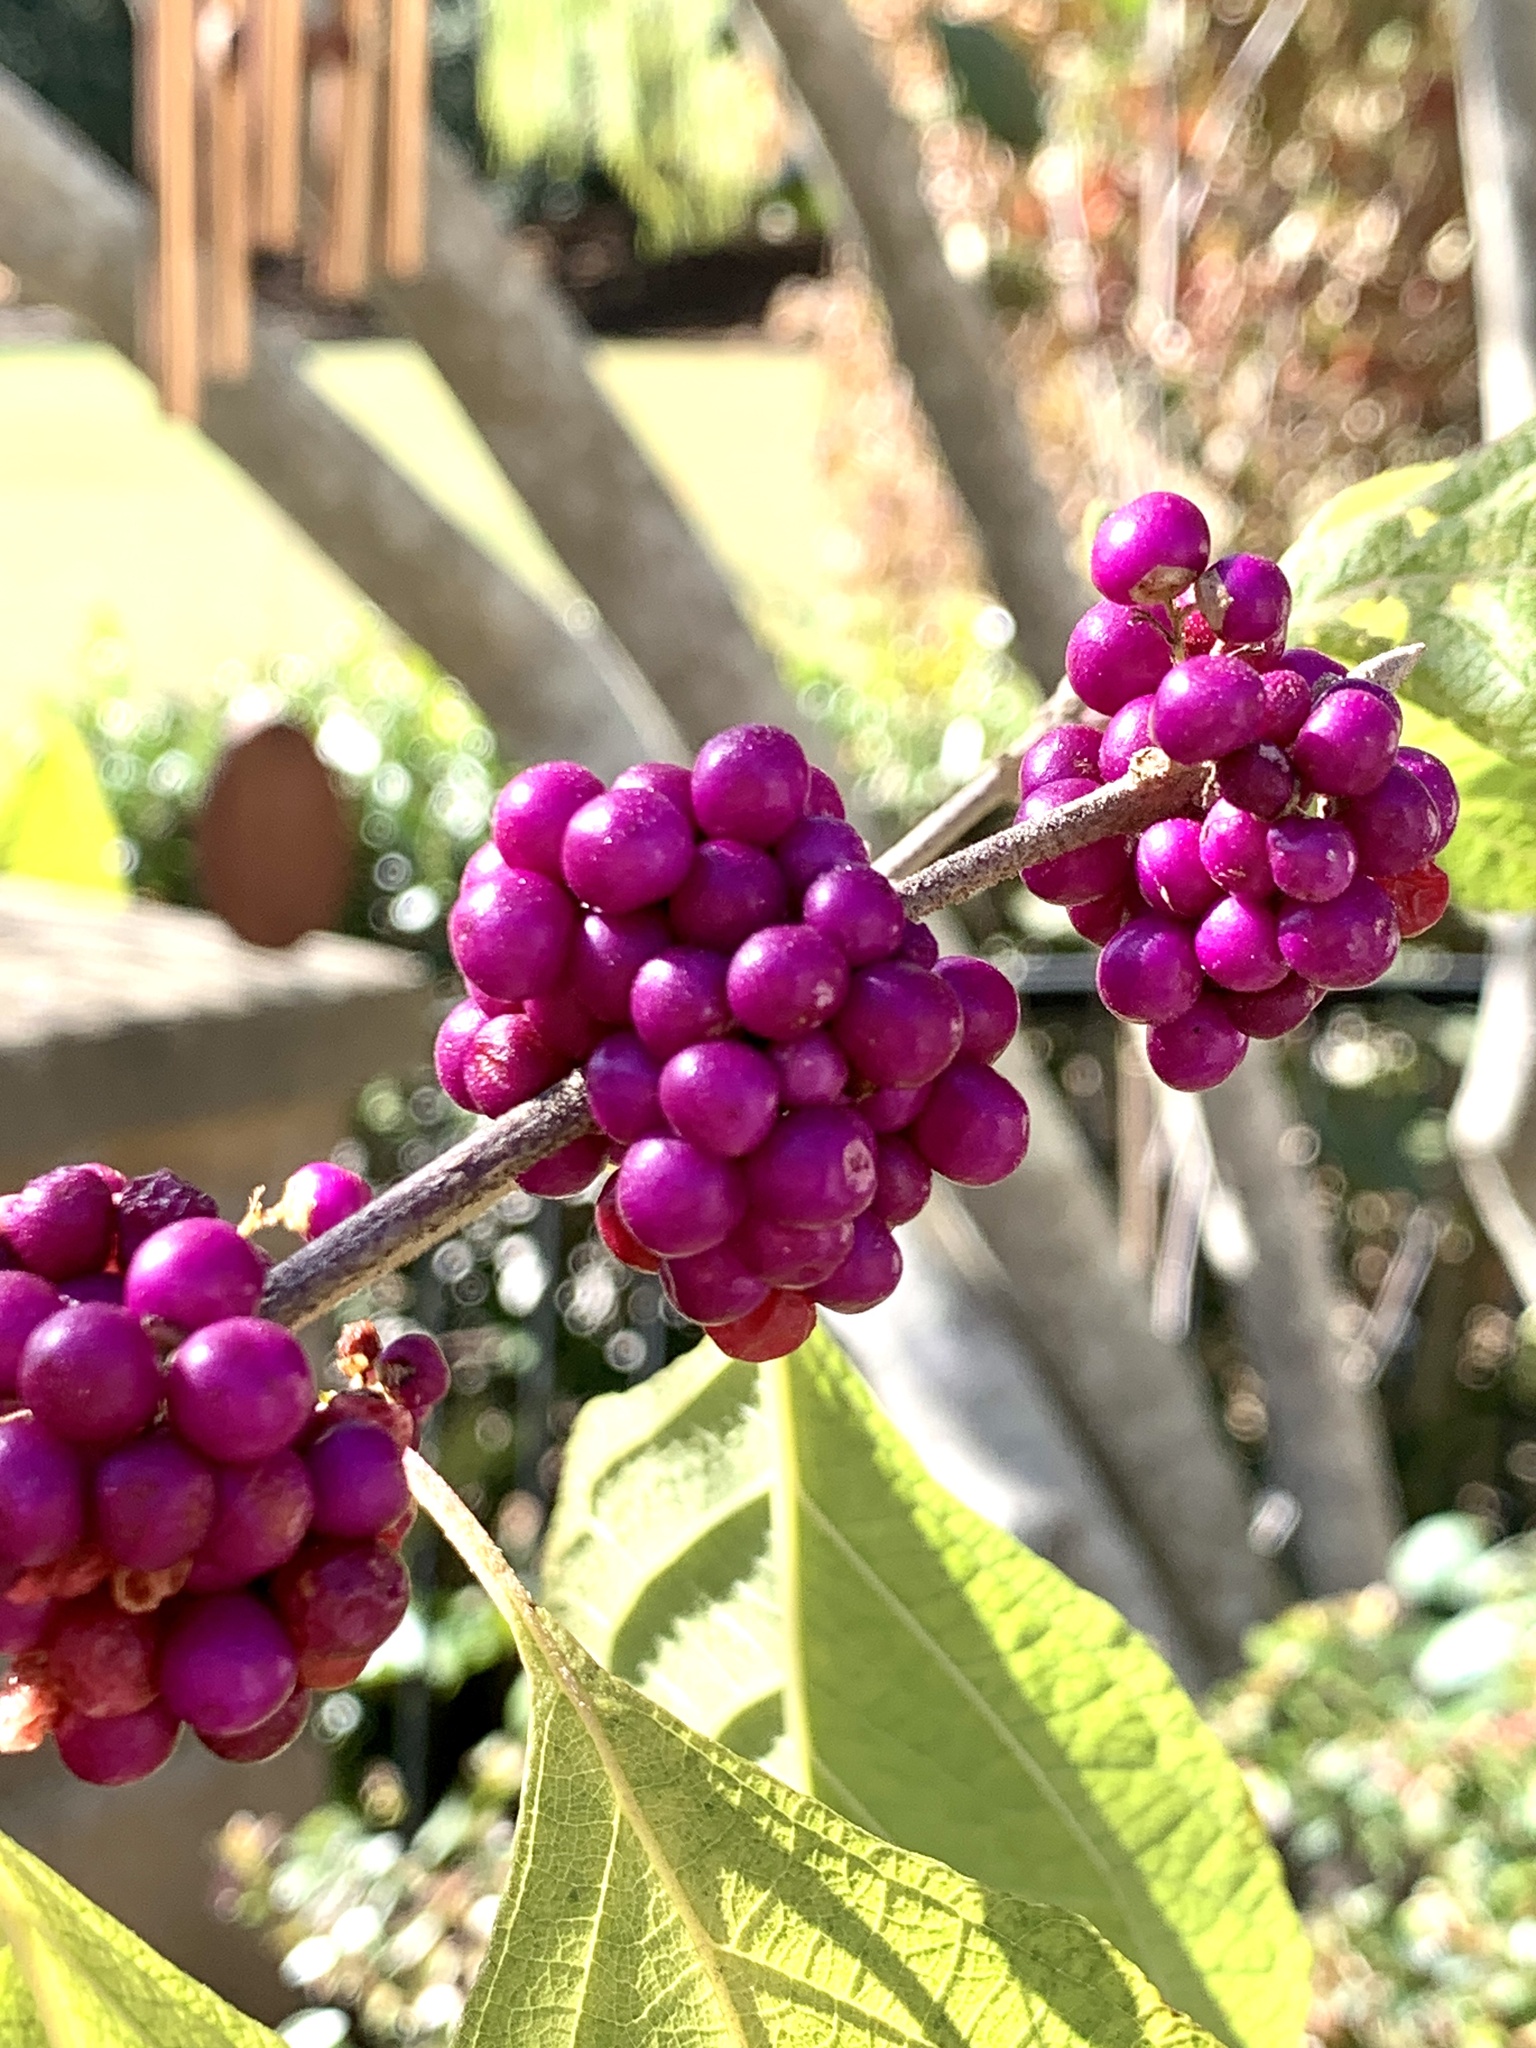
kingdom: Plantae
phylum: Tracheophyta
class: Magnoliopsida
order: Lamiales
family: Lamiaceae
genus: Callicarpa
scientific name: Callicarpa americana
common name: American beautyberry
